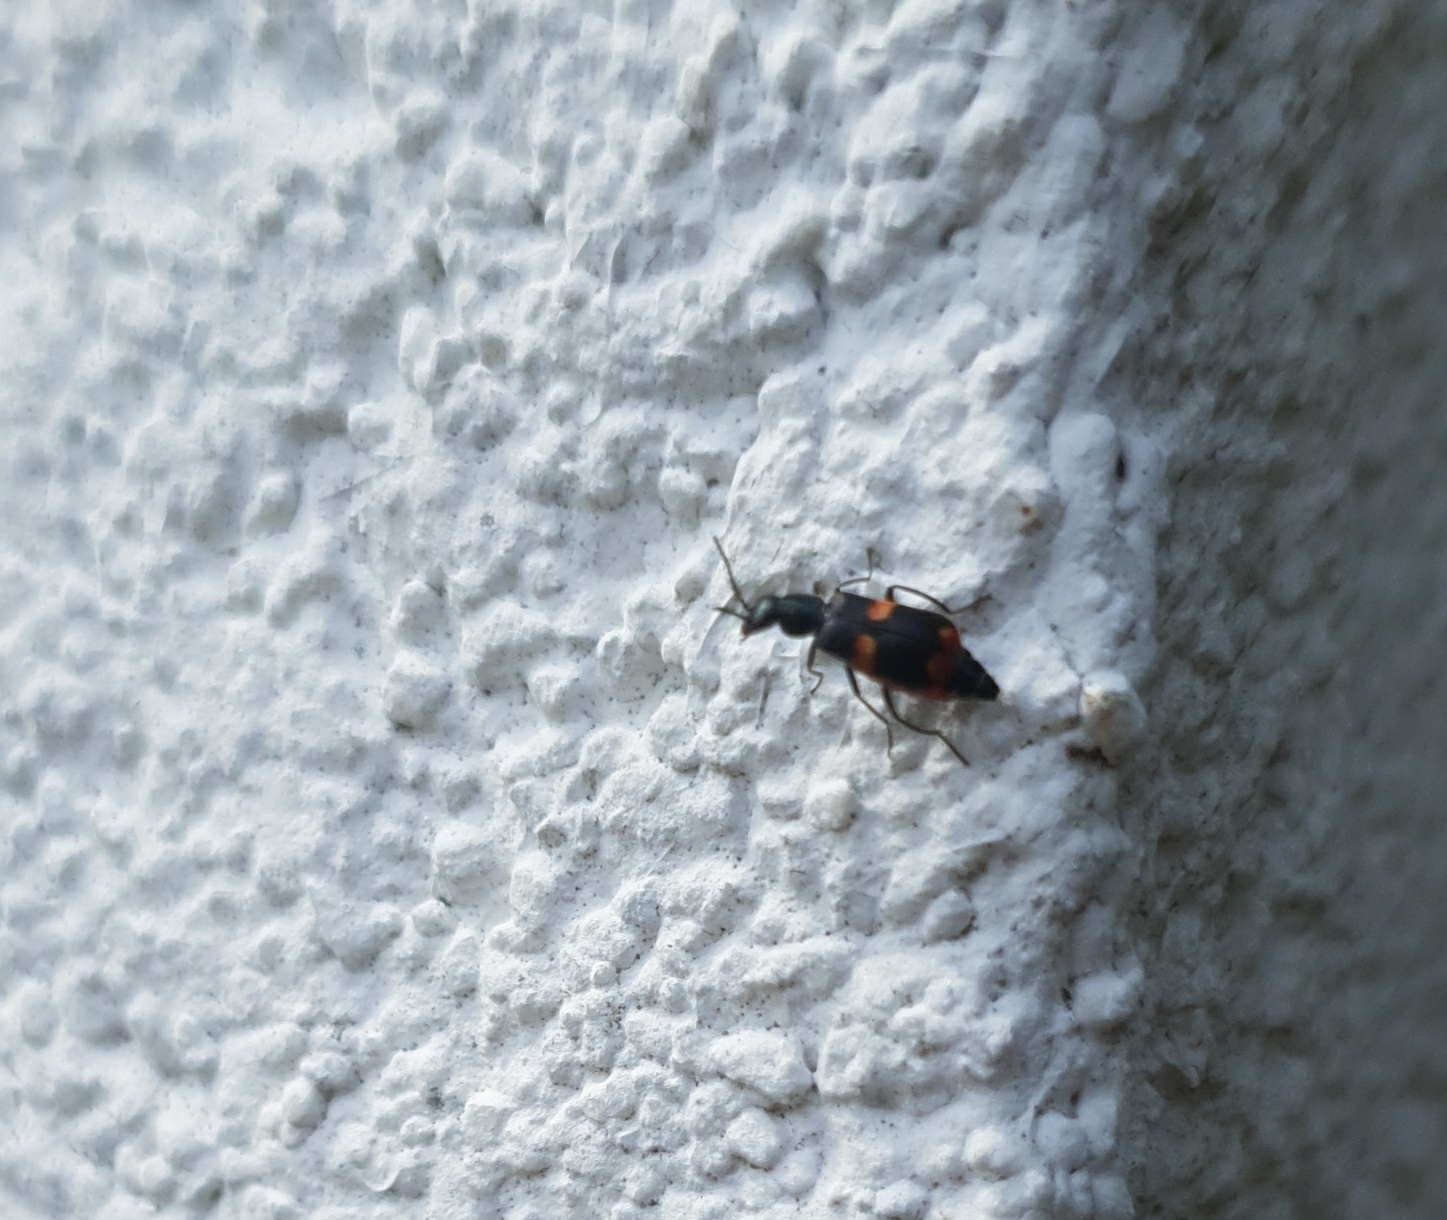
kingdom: Animalia
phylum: Arthropoda
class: Insecta
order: Coleoptera
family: Melyridae
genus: Anthocomus
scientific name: Anthocomus fasciatus
